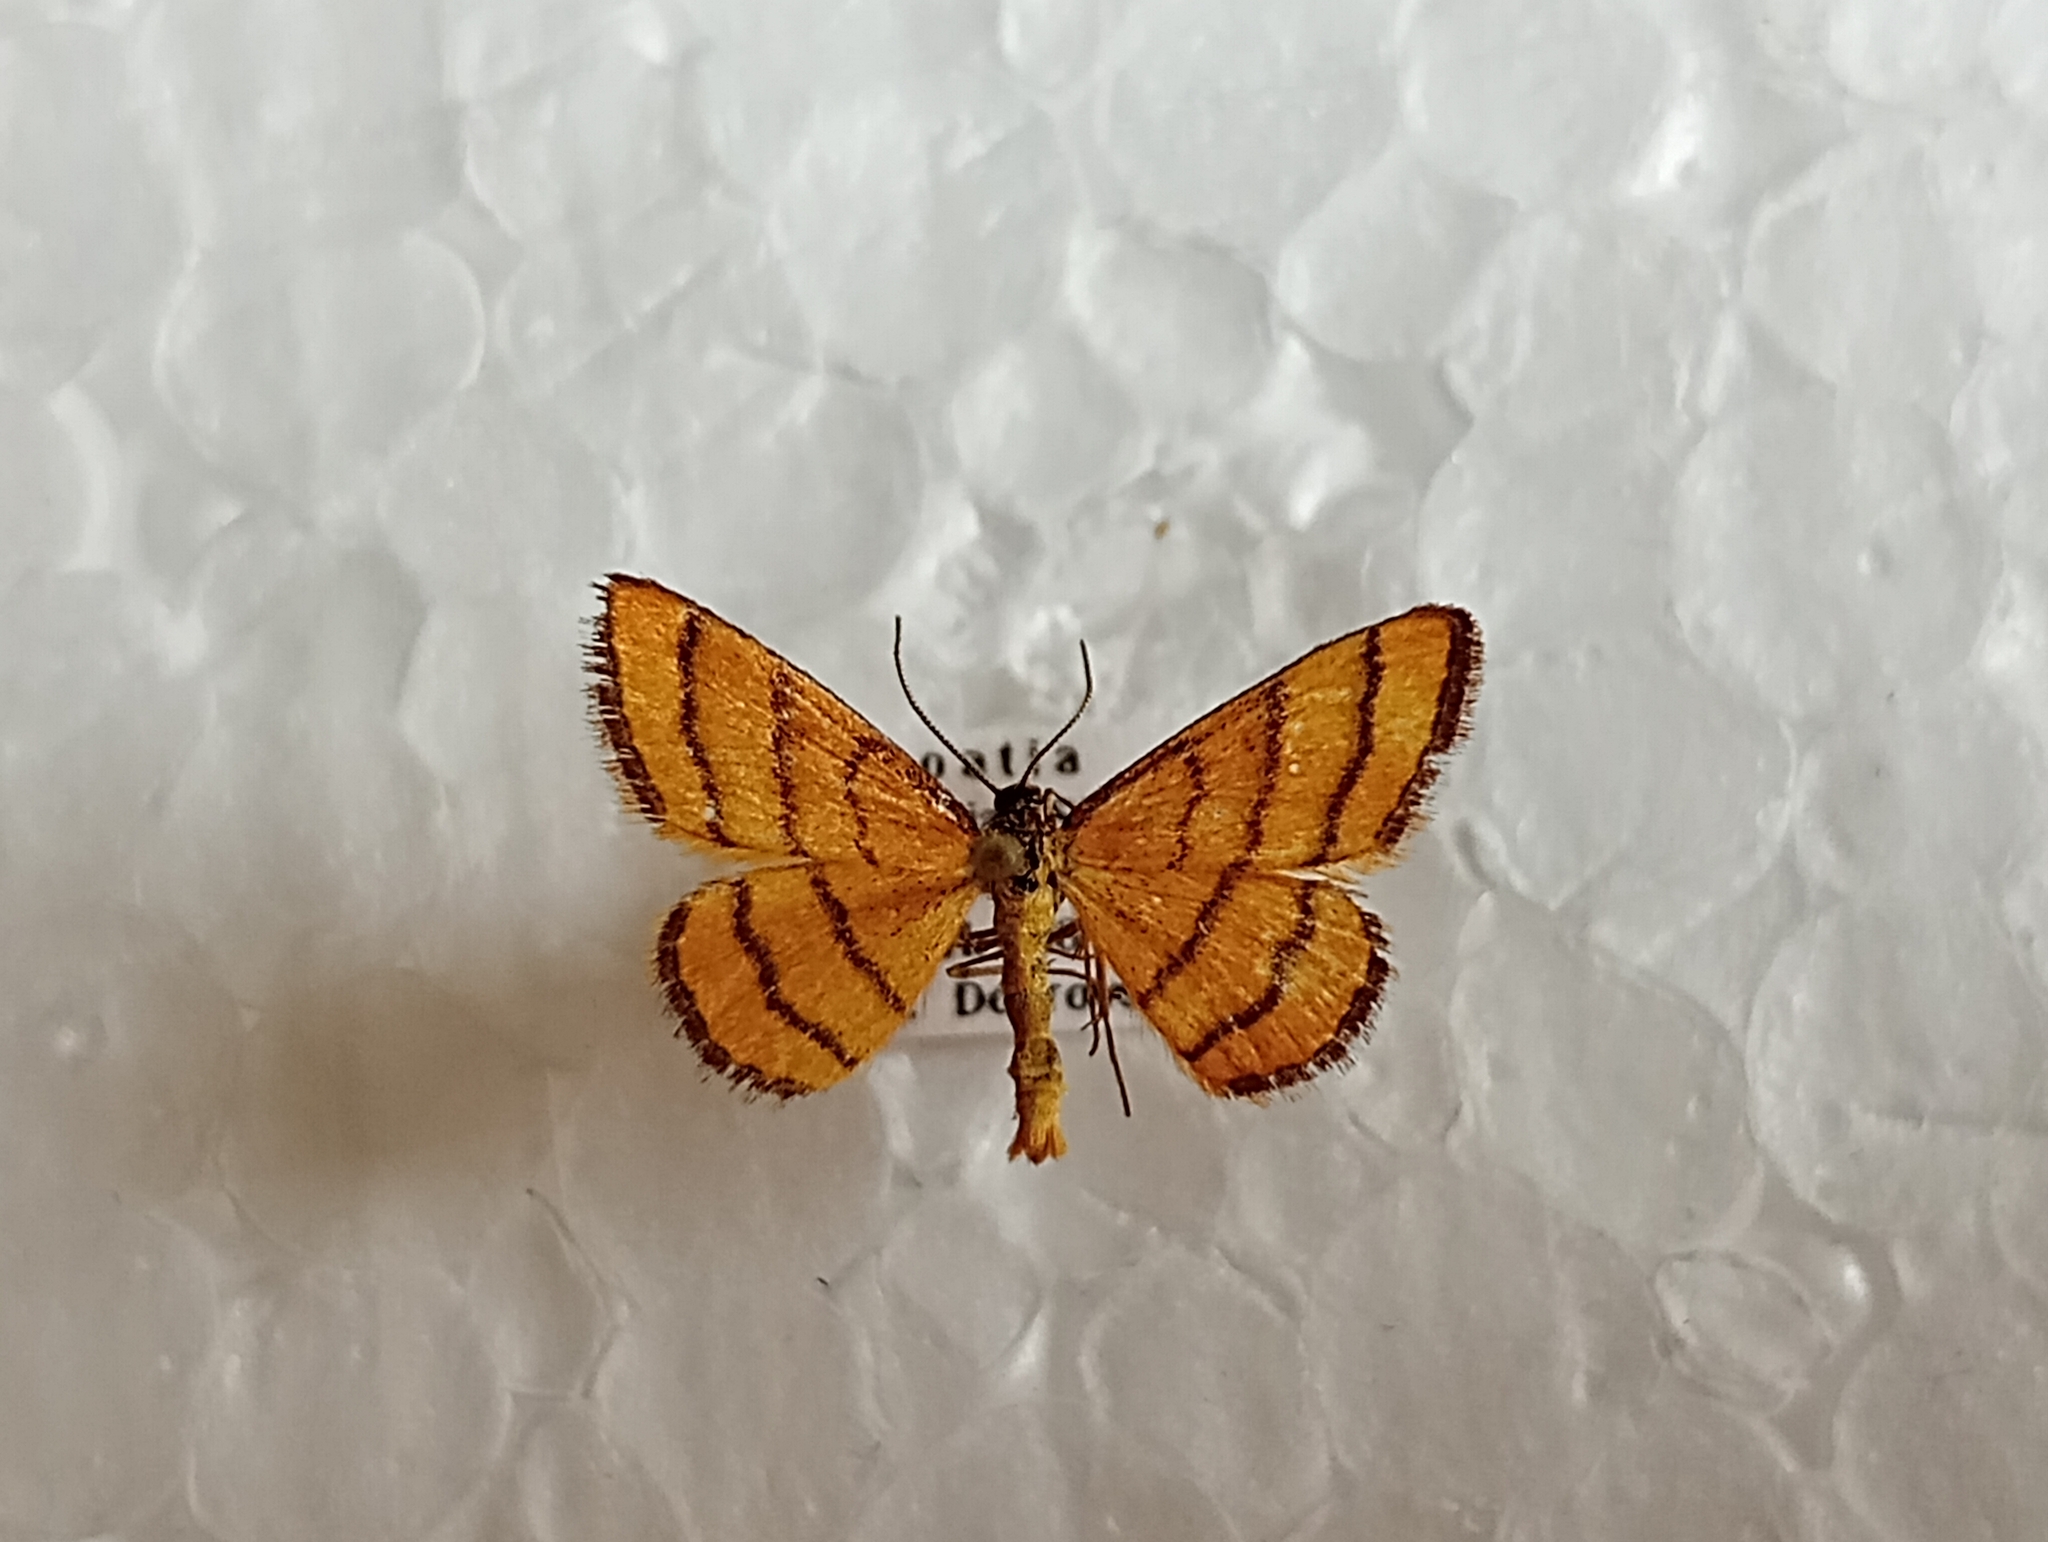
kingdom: Animalia
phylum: Arthropoda
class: Insecta
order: Lepidoptera
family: Geometridae
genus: Idaea
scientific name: Idaea aureolaria
